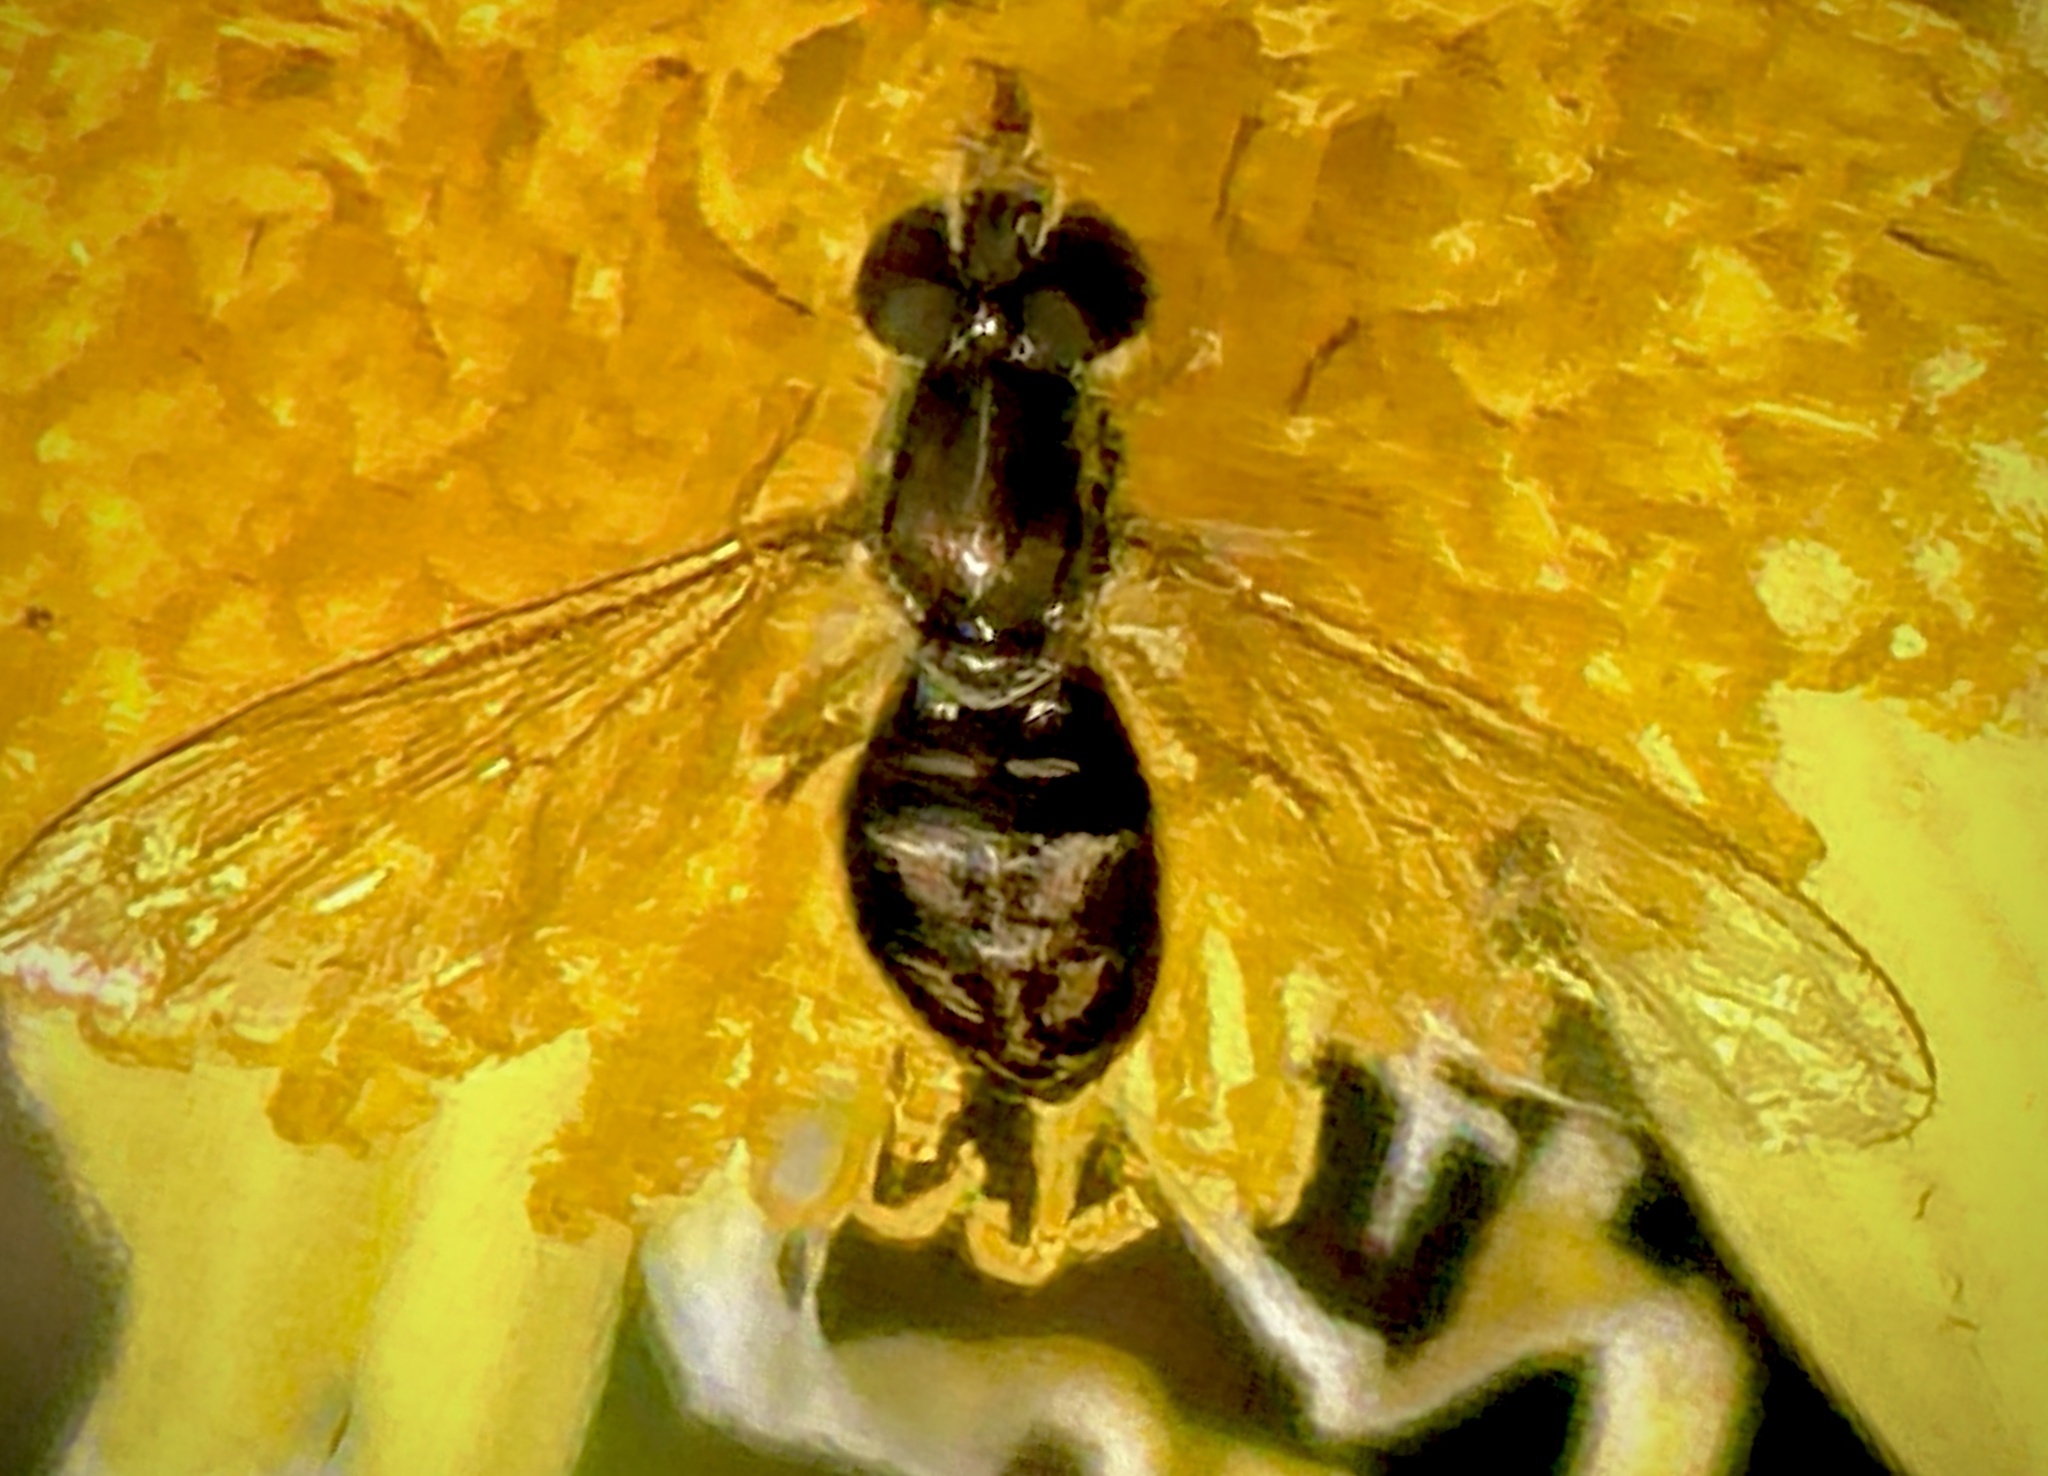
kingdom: Animalia
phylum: Arthropoda
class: Insecta
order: Diptera
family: Syrphidae
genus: Toxomerus
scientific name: Toxomerus marginatus
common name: Syrphid fly
